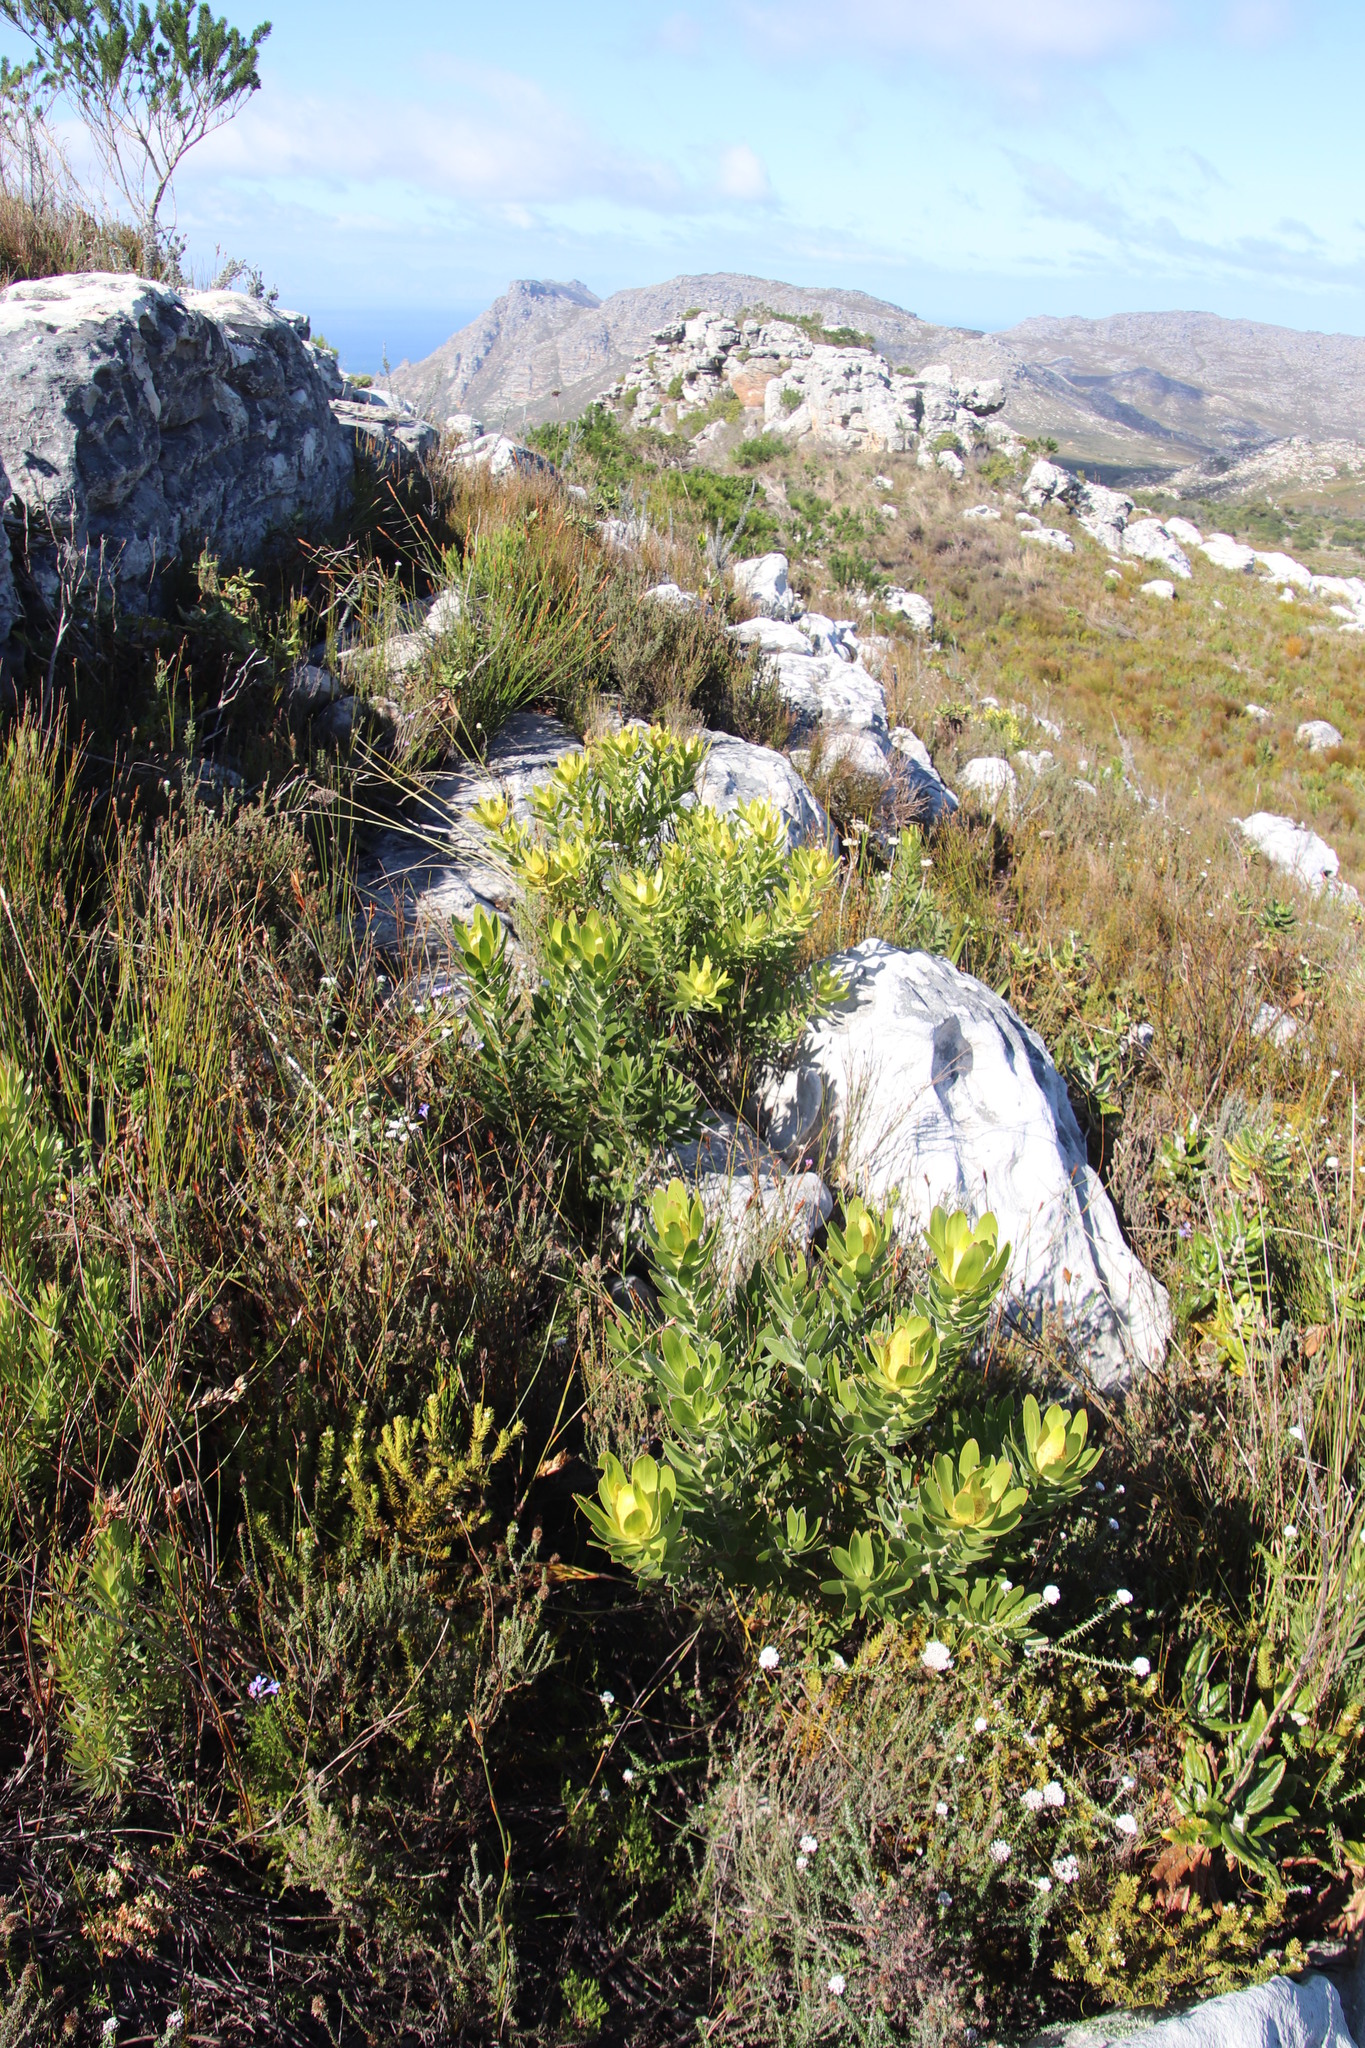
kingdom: Plantae
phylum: Tracheophyta
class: Magnoliopsida
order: Proteales
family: Proteaceae
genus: Leucadendron
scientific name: Leucadendron laureolum
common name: Golden sunshinebush
